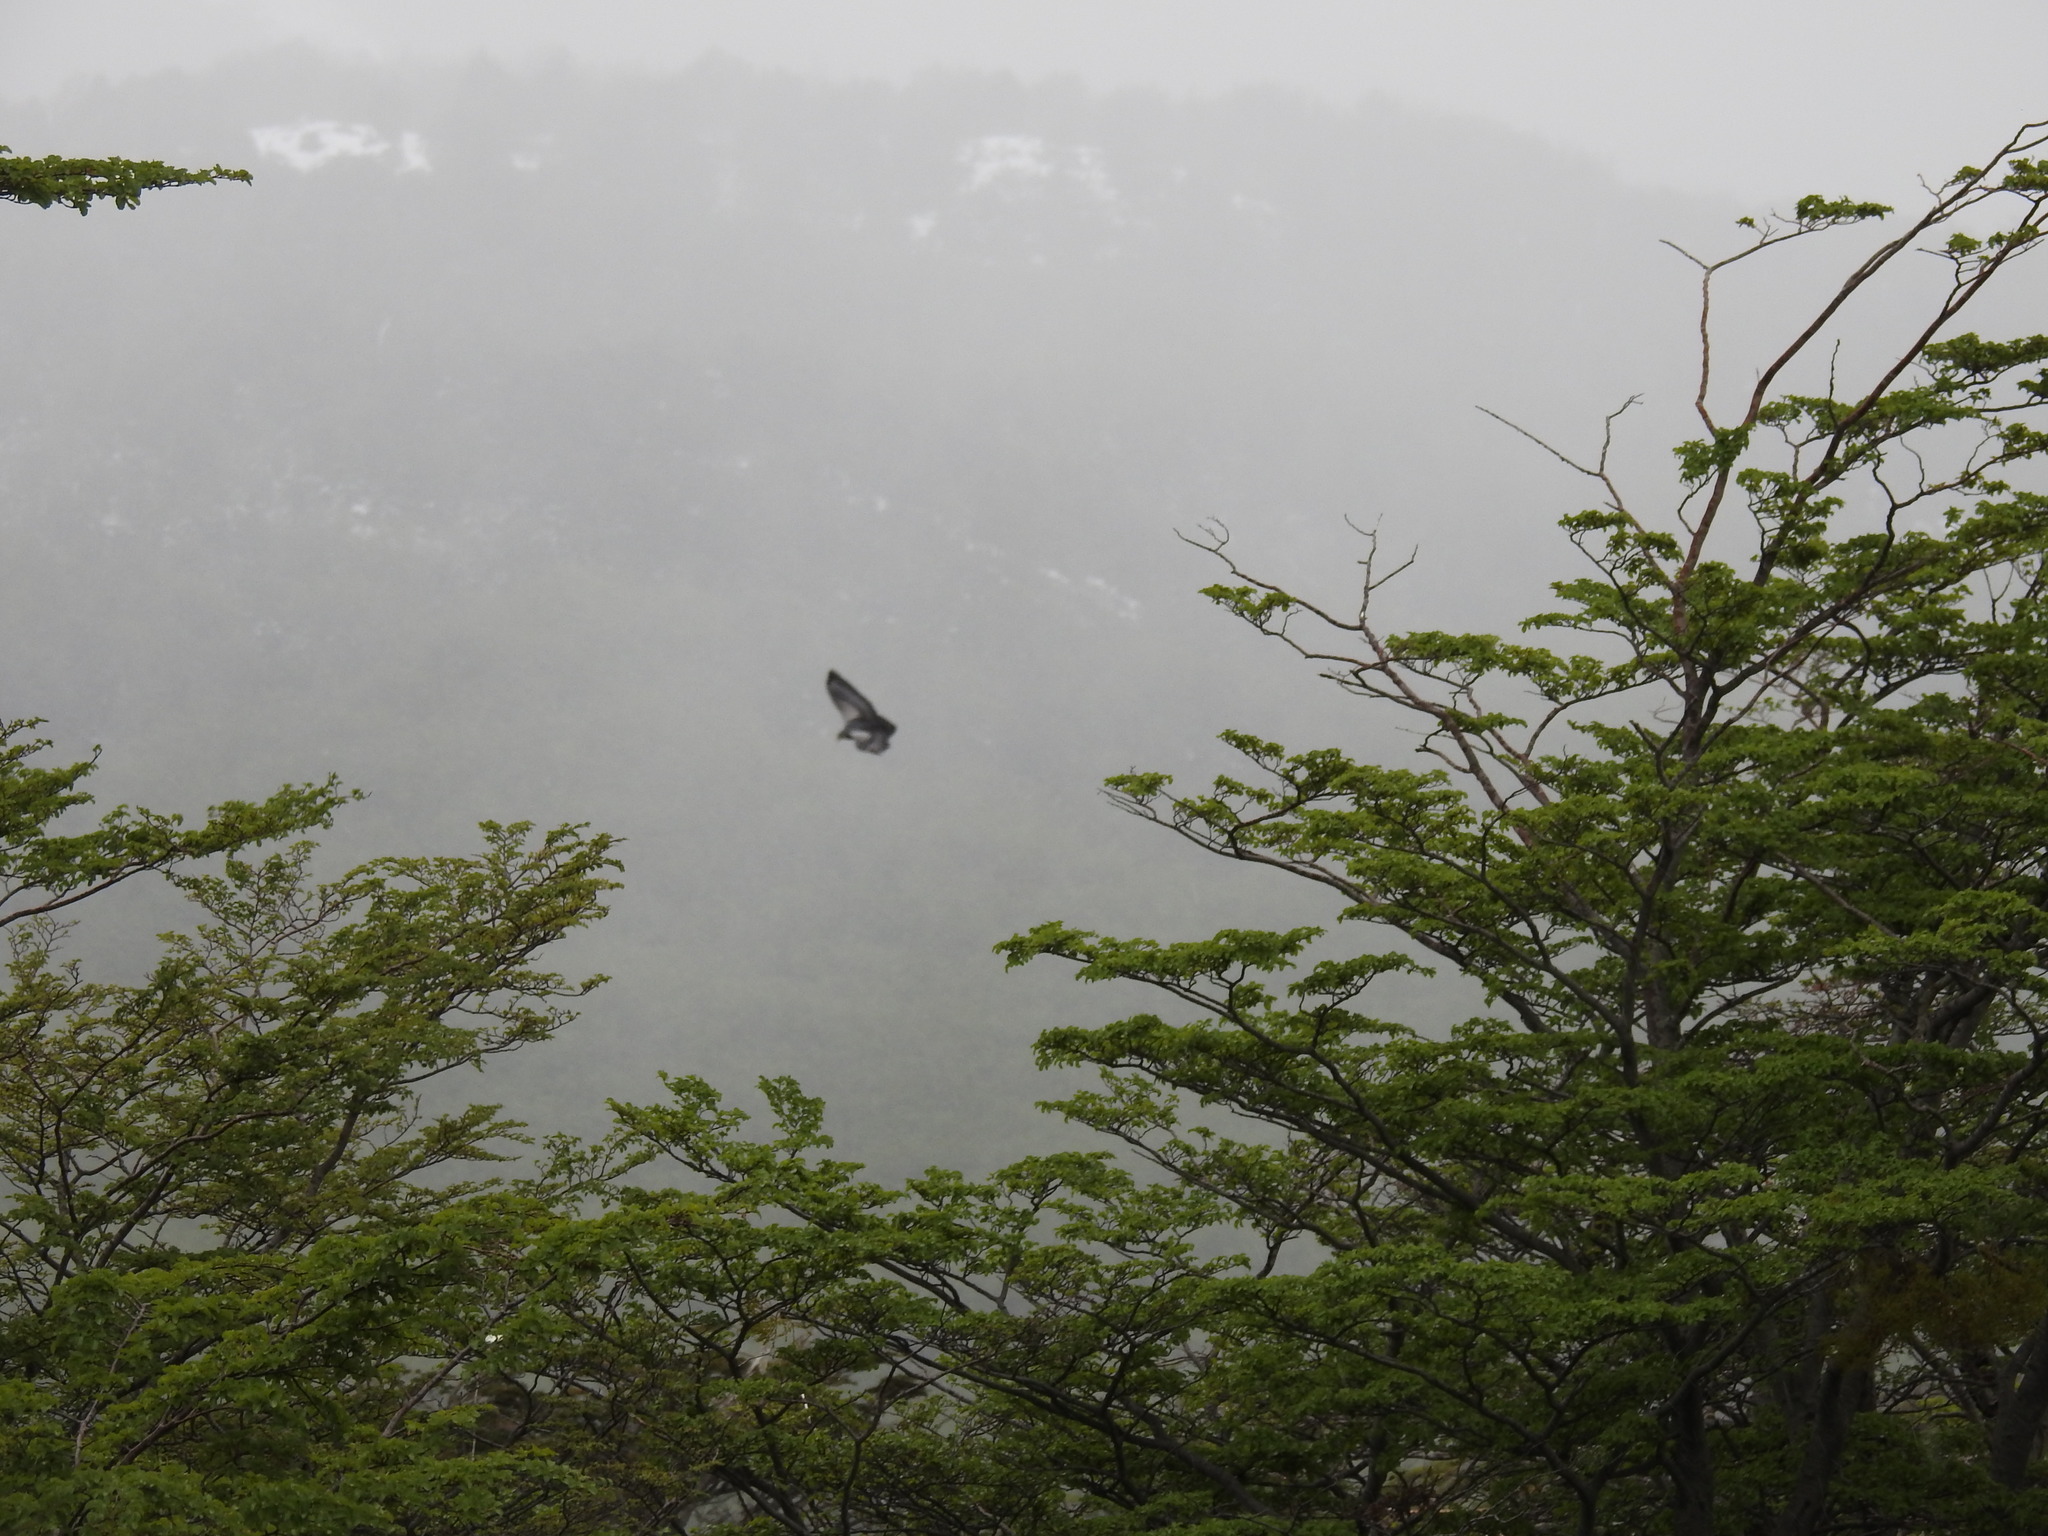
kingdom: Animalia
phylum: Chordata
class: Aves
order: Accipitriformes
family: Accipitridae
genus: Geranoaetus
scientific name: Geranoaetus melanoleucus
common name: Black-chested buzzard-eagle
